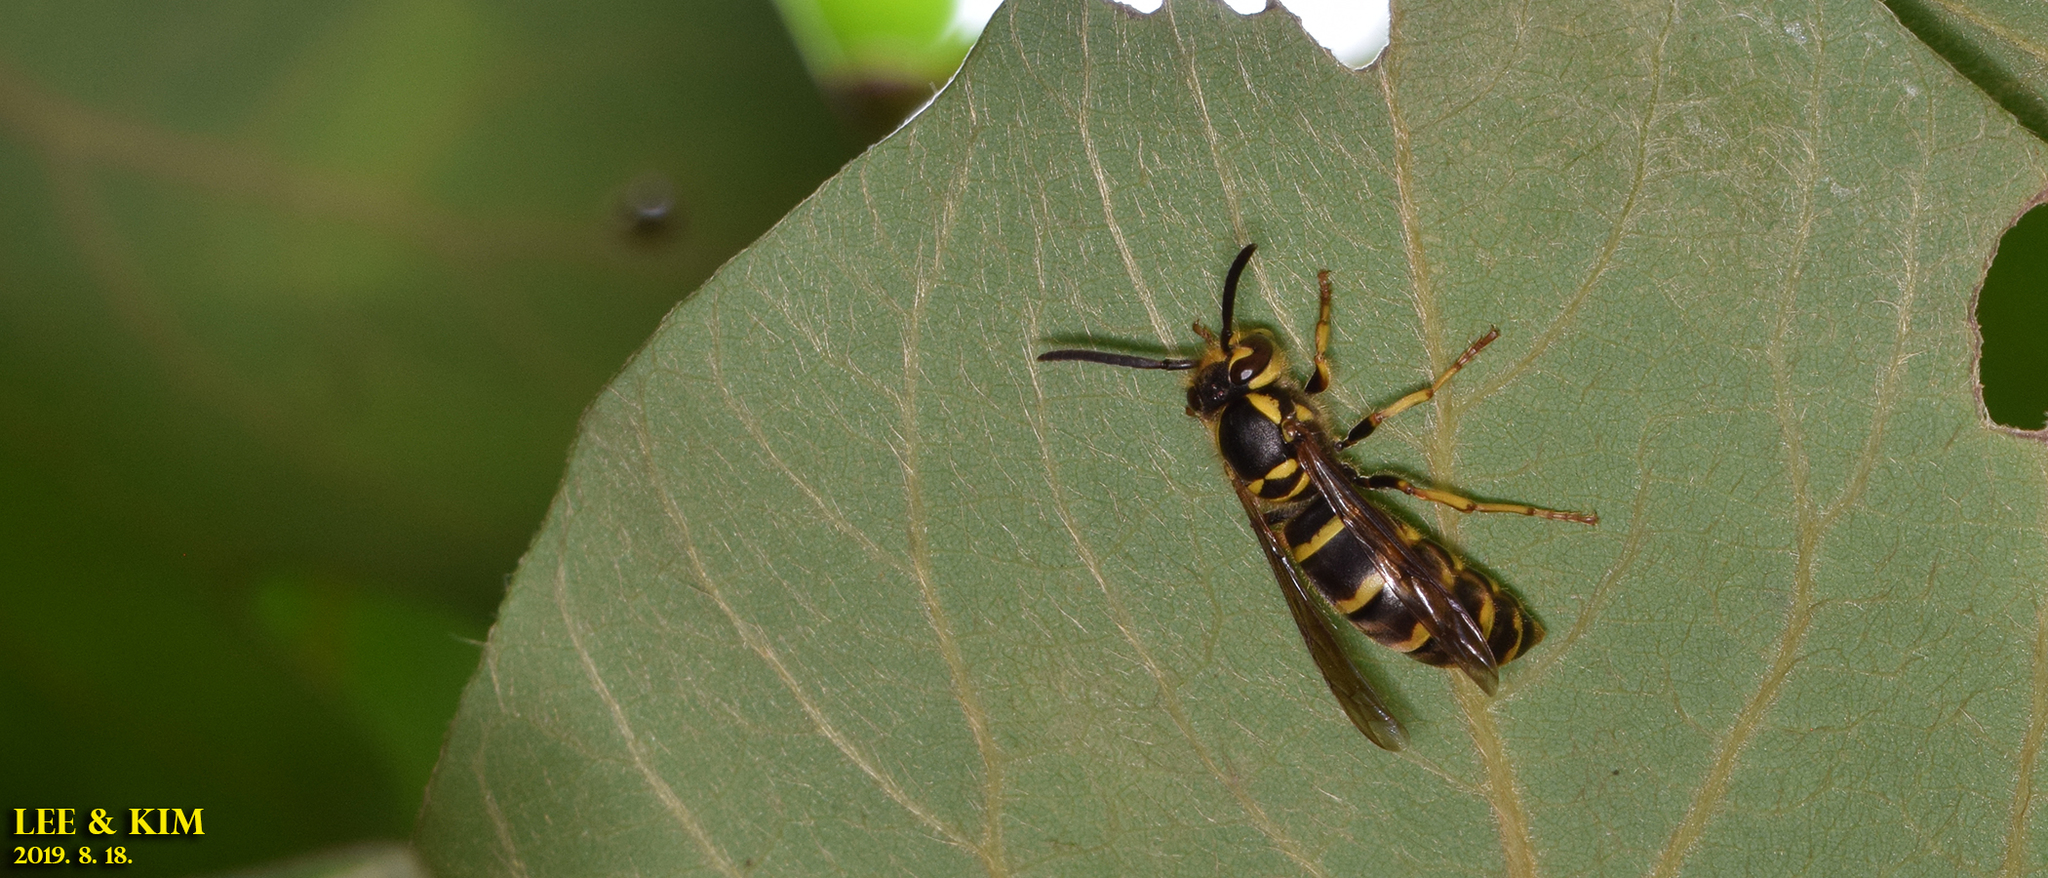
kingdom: Animalia
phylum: Arthropoda
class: Insecta
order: Hymenoptera
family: Vespidae
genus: Vespula
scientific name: Vespula koreensis
